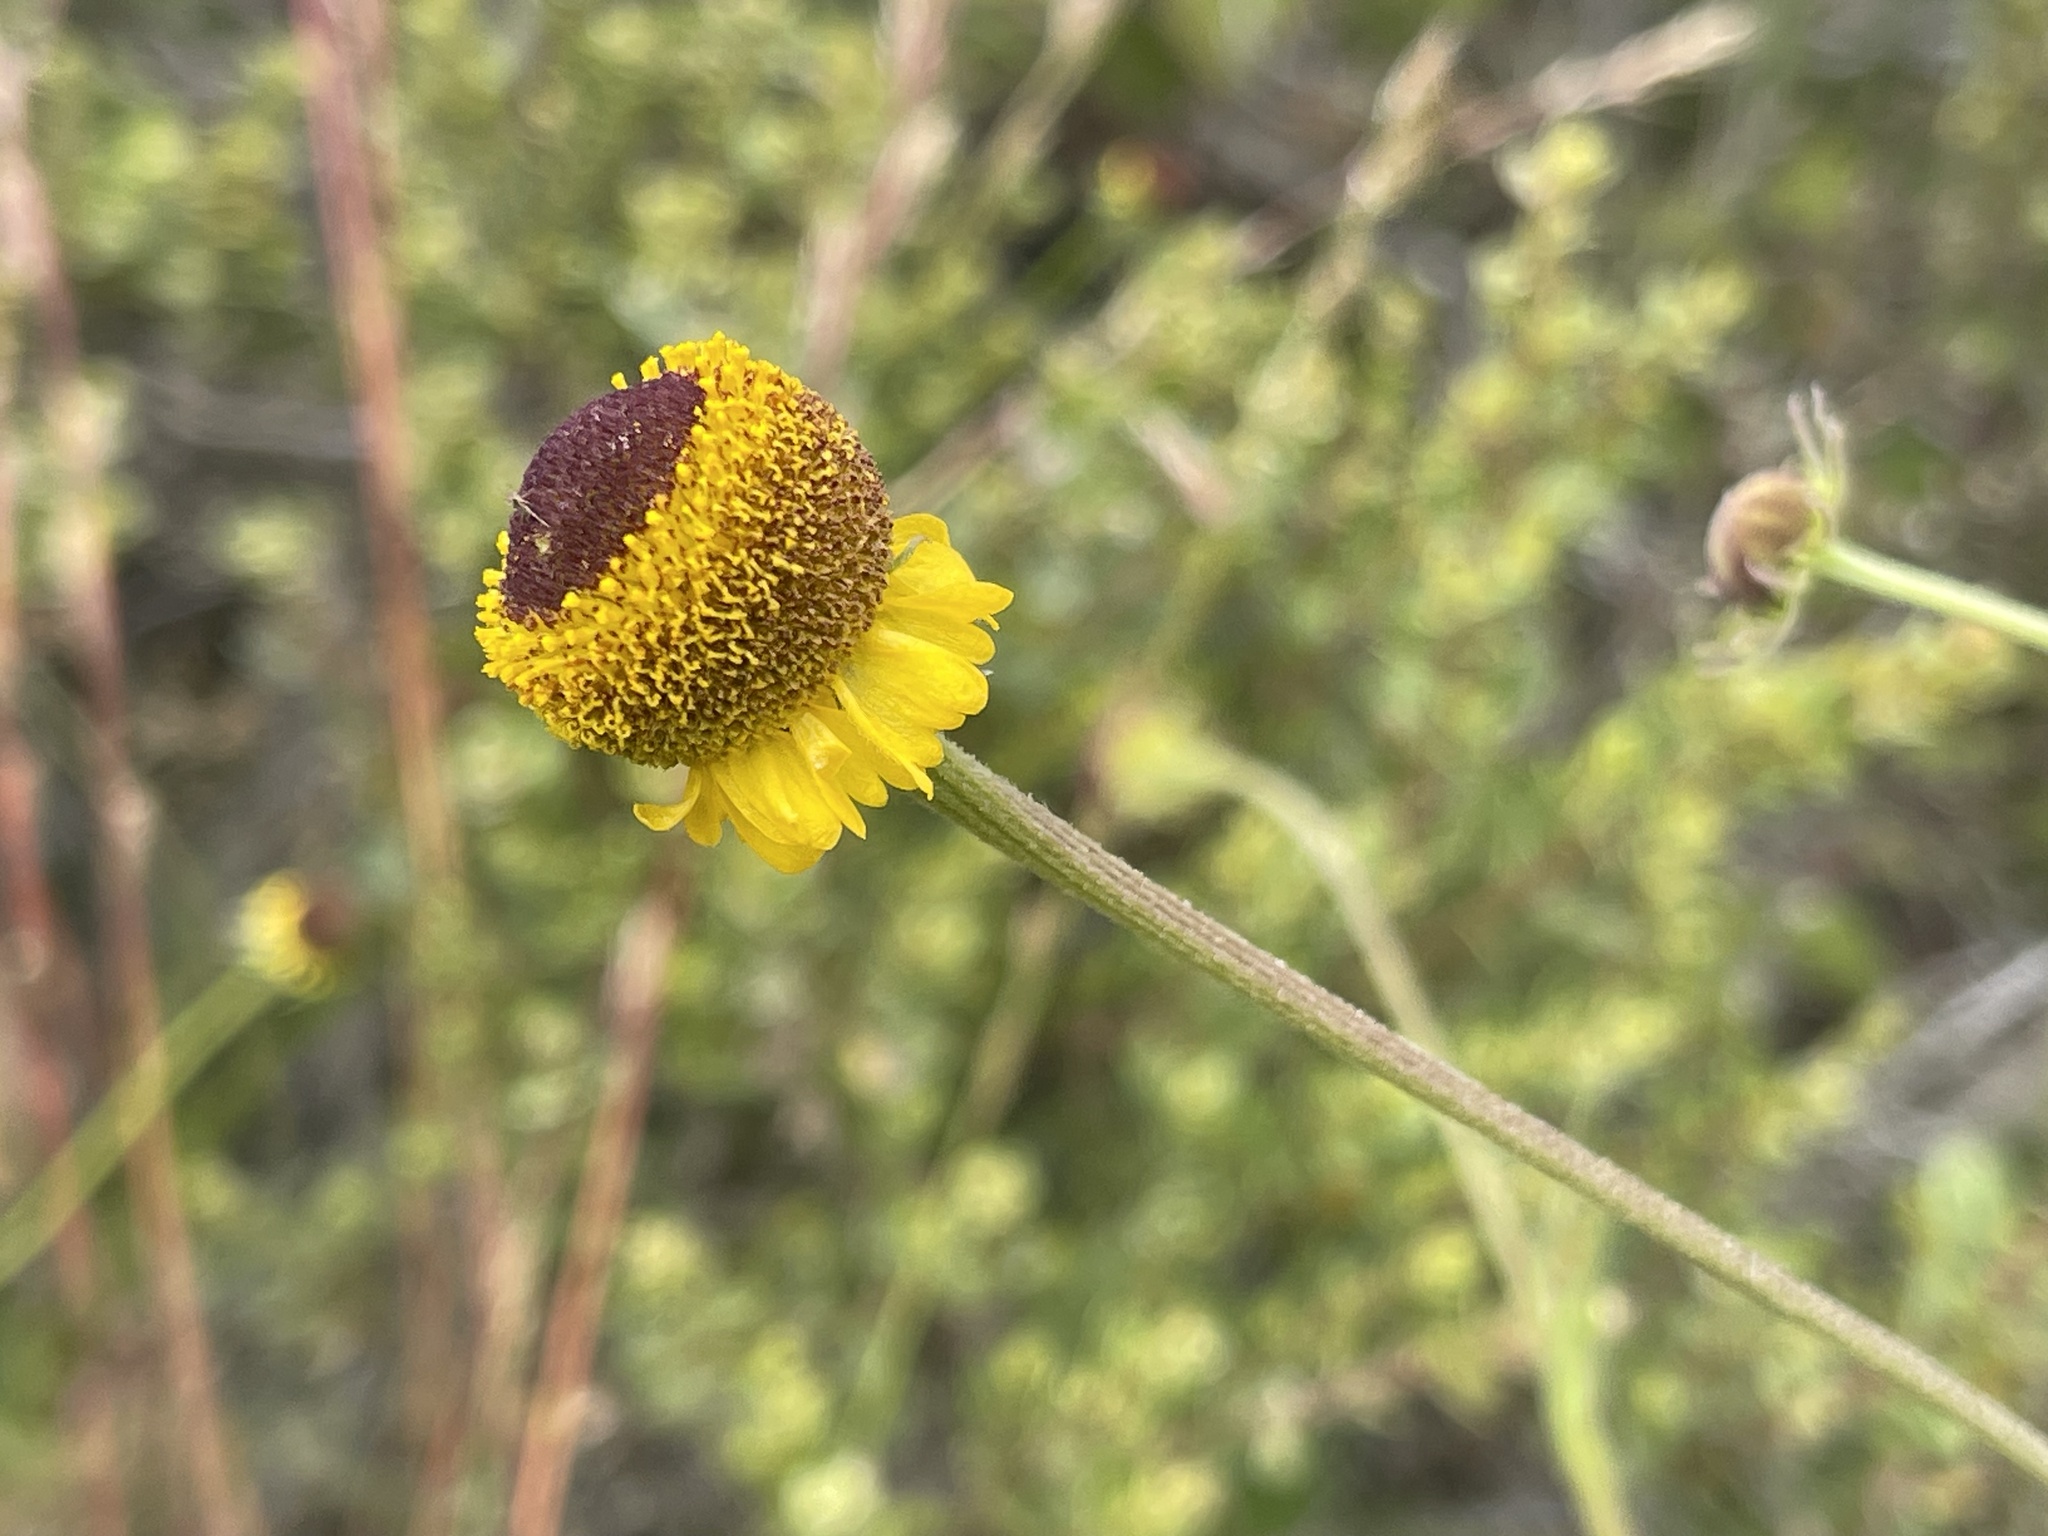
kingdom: Plantae
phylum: Tracheophyta
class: Magnoliopsida
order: Asterales
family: Asteraceae
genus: Helenium
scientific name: Helenium puberulum
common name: Sneezewort
